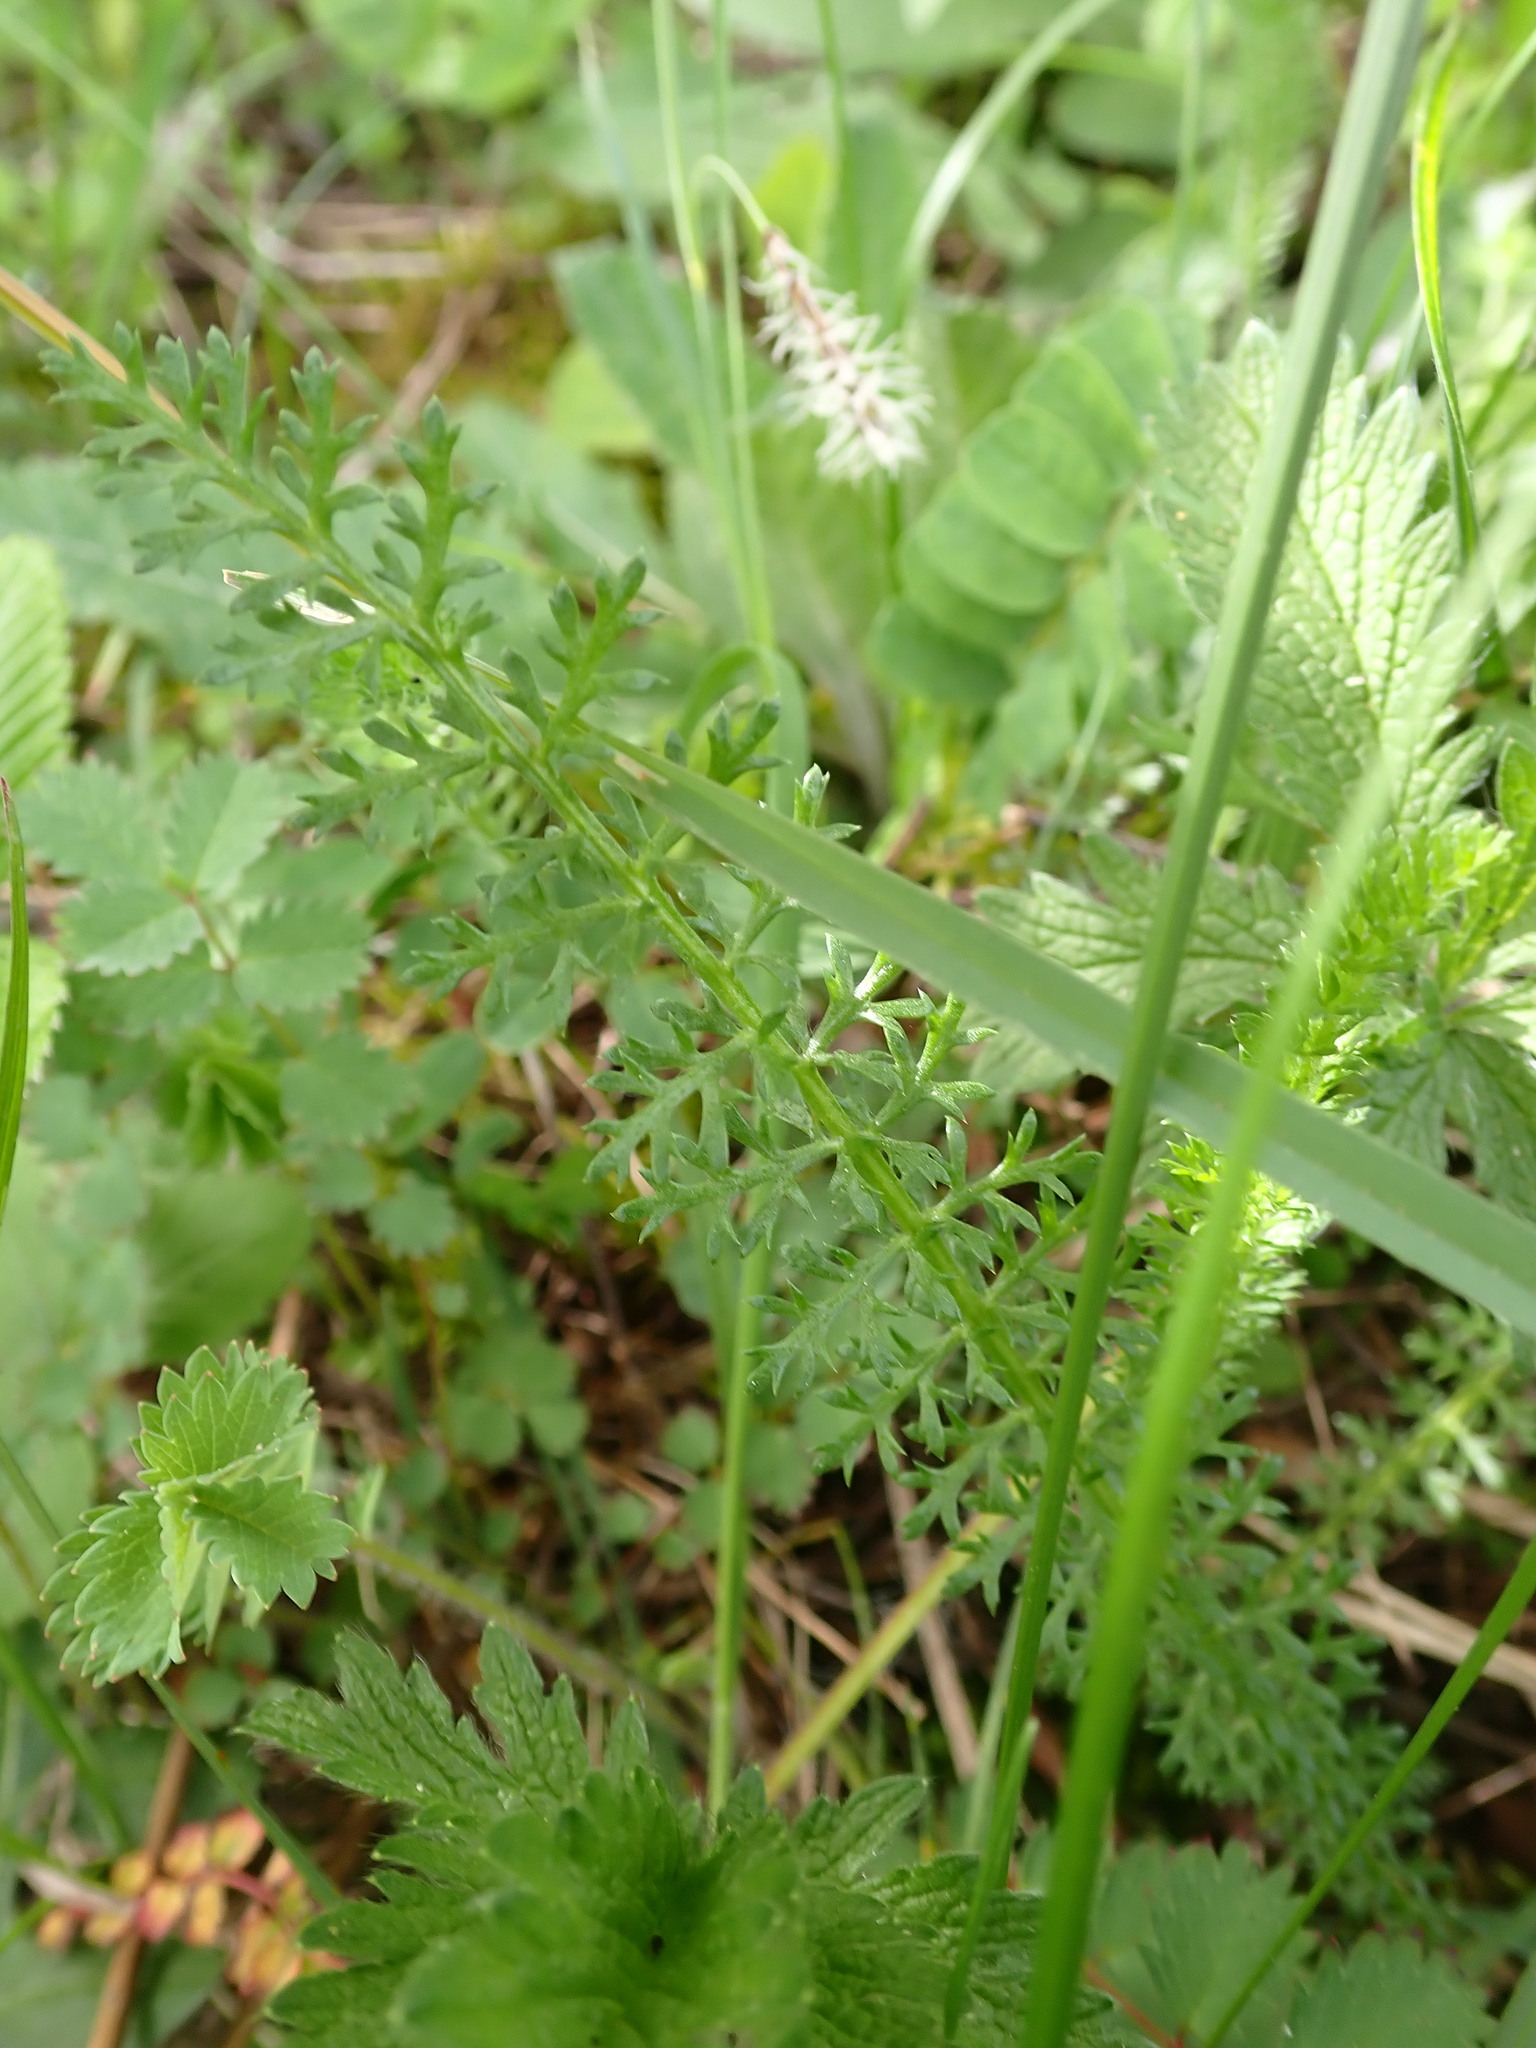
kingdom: Plantae
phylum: Tracheophyta
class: Magnoliopsida
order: Asterales
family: Asteraceae
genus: Achillea
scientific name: Achillea millefolium
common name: Yarrow
